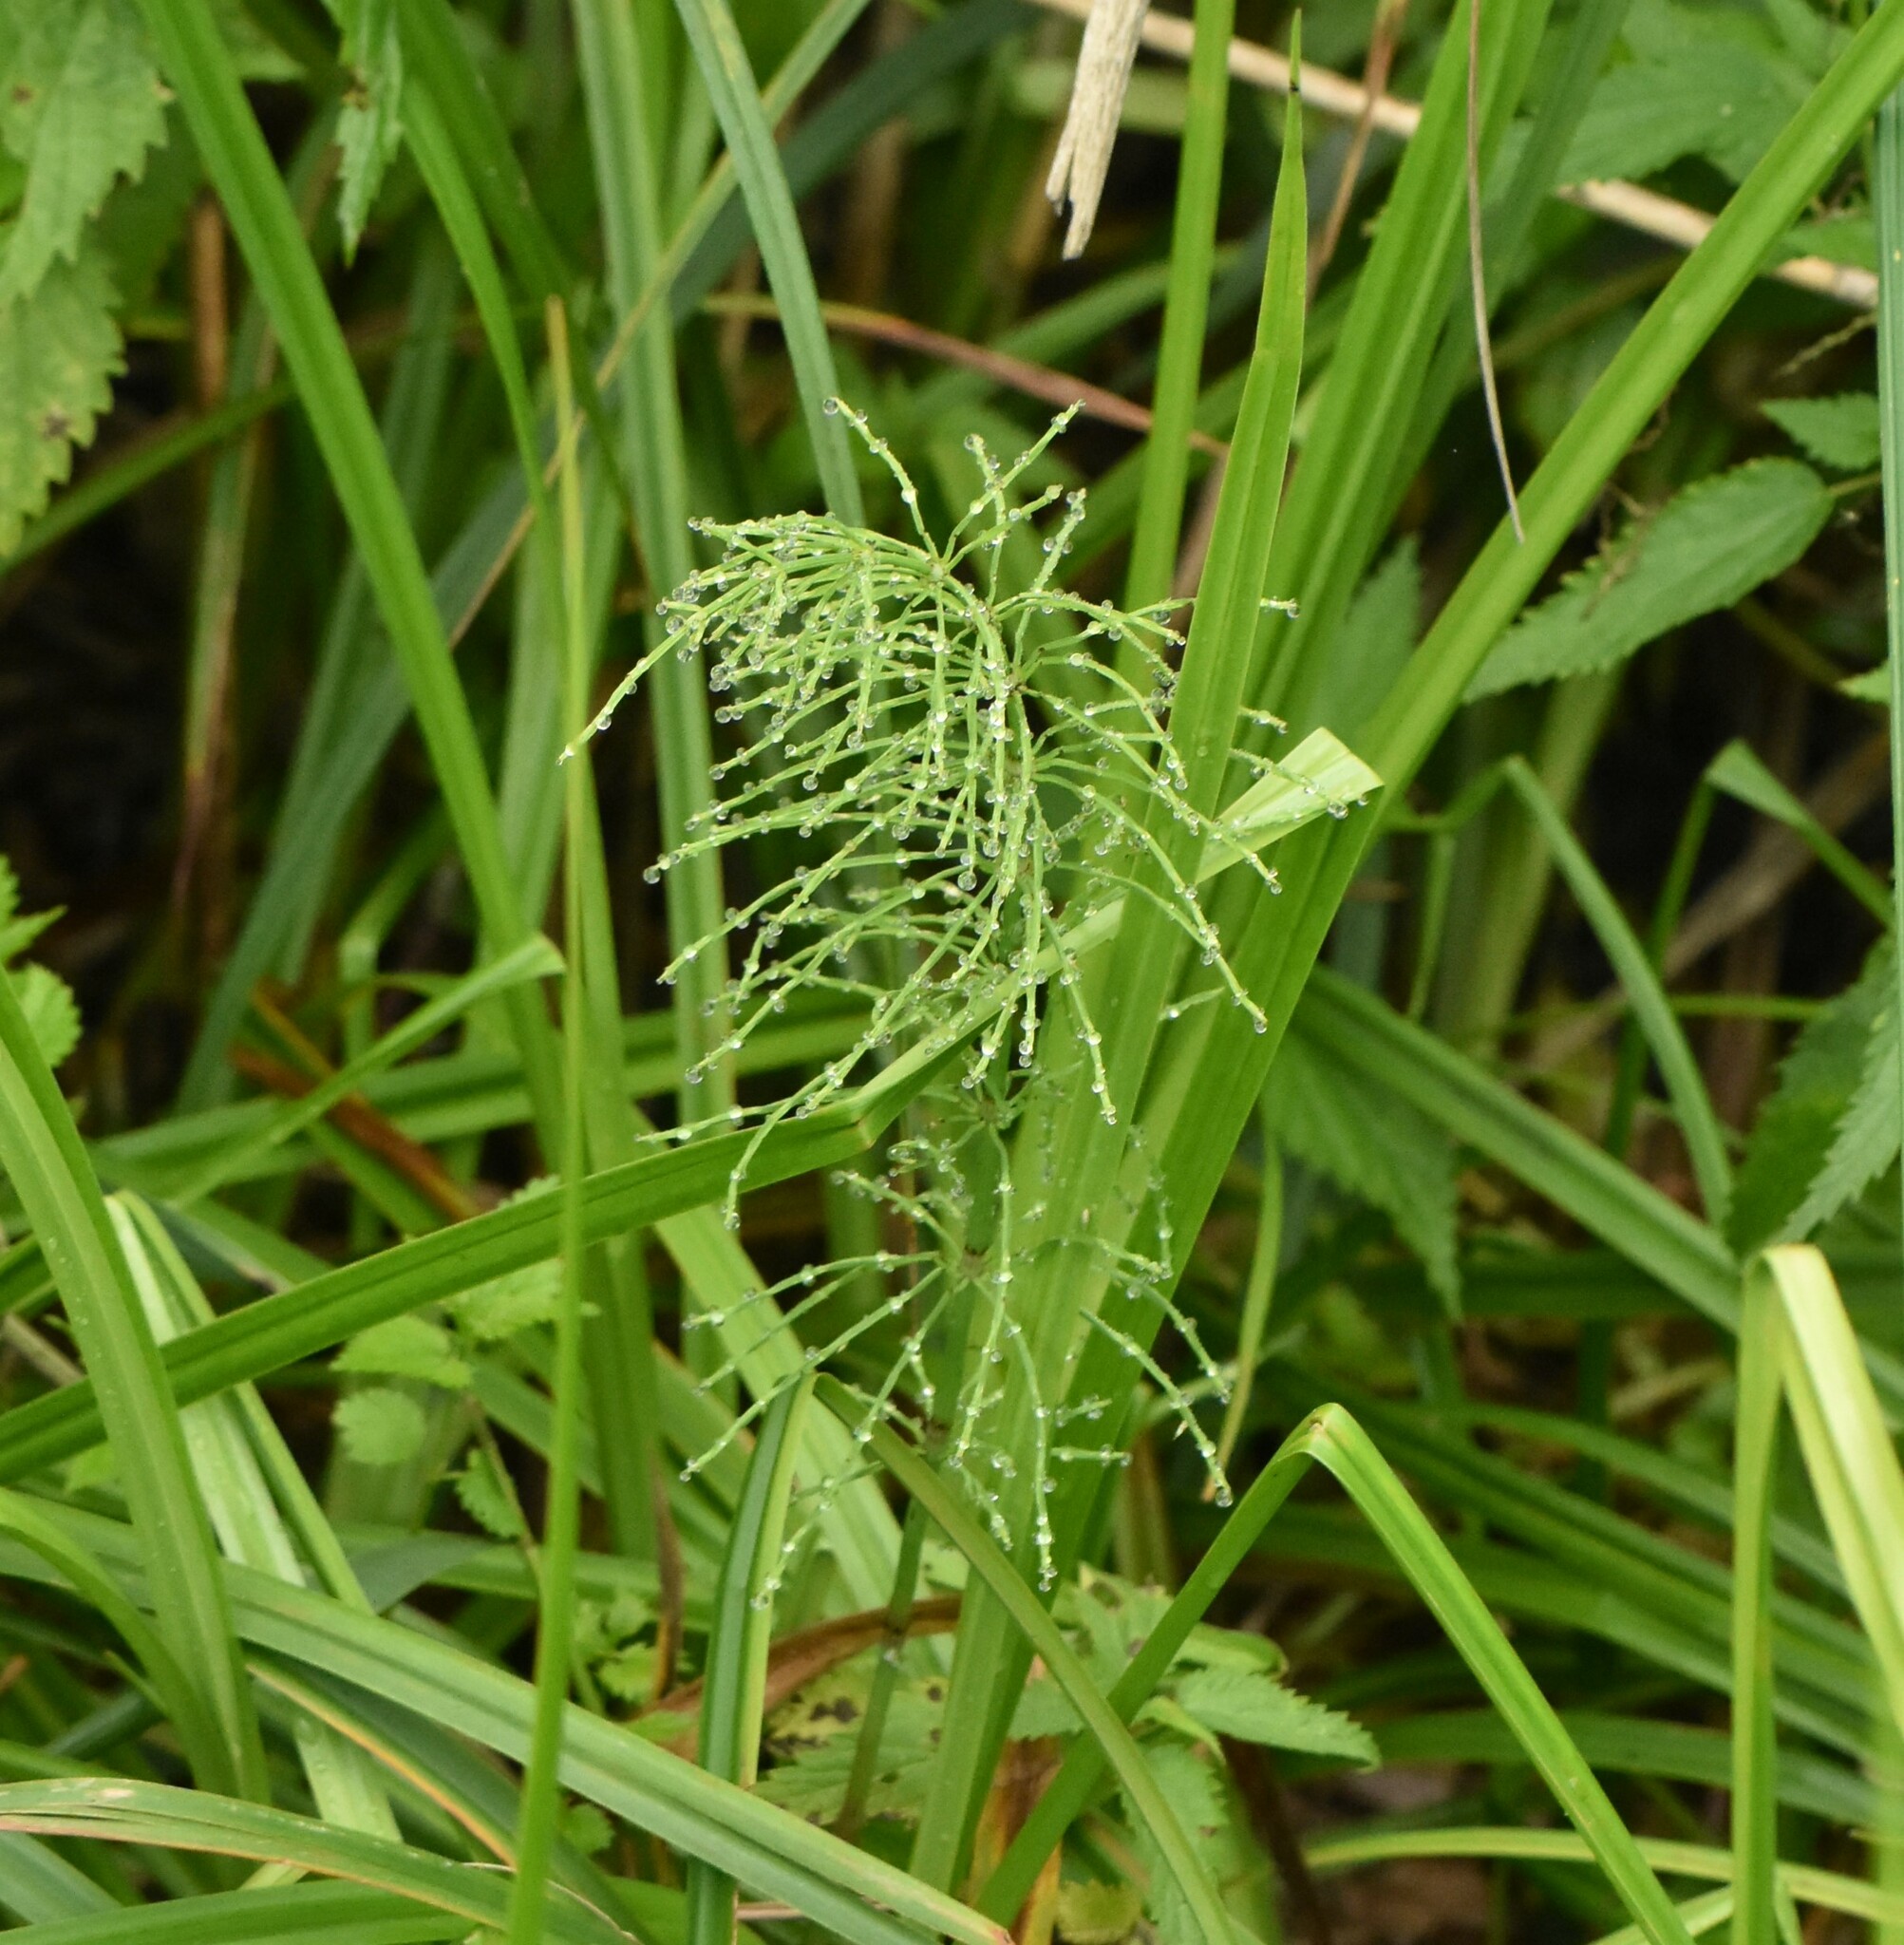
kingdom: Plantae
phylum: Tracheophyta
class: Polypodiopsida
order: Equisetales
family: Equisetaceae
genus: Equisetum
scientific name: Equisetum arvense
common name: Field horsetail
